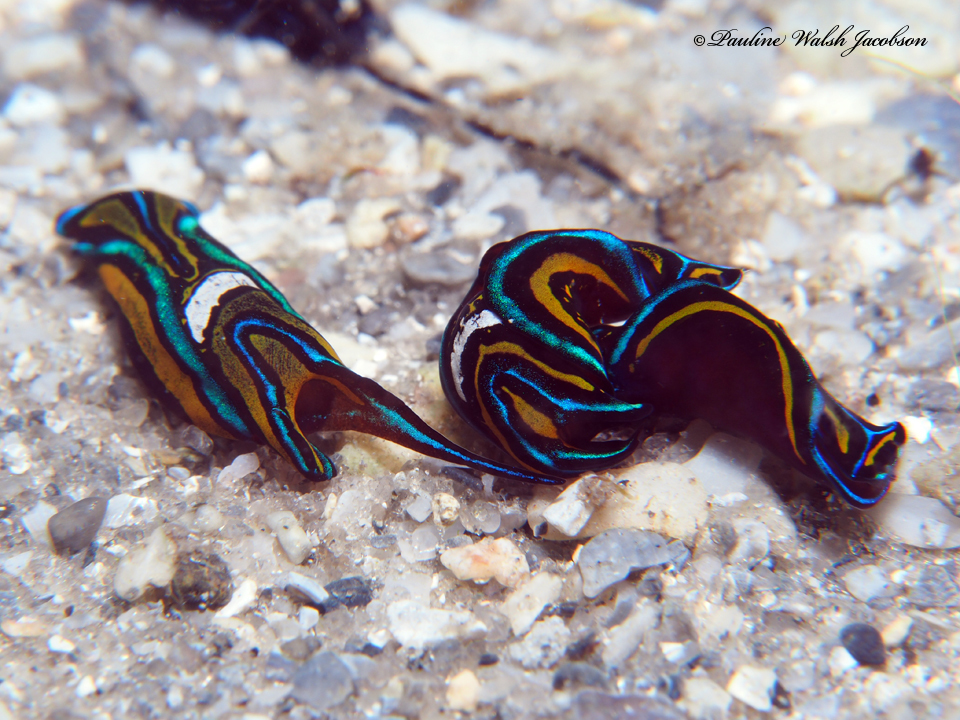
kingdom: Animalia
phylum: Mollusca
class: Gastropoda
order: Cephalaspidea
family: Aglajidae
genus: Chelidonura
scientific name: Chelidonura hirundinina
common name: Leech headshield slug
